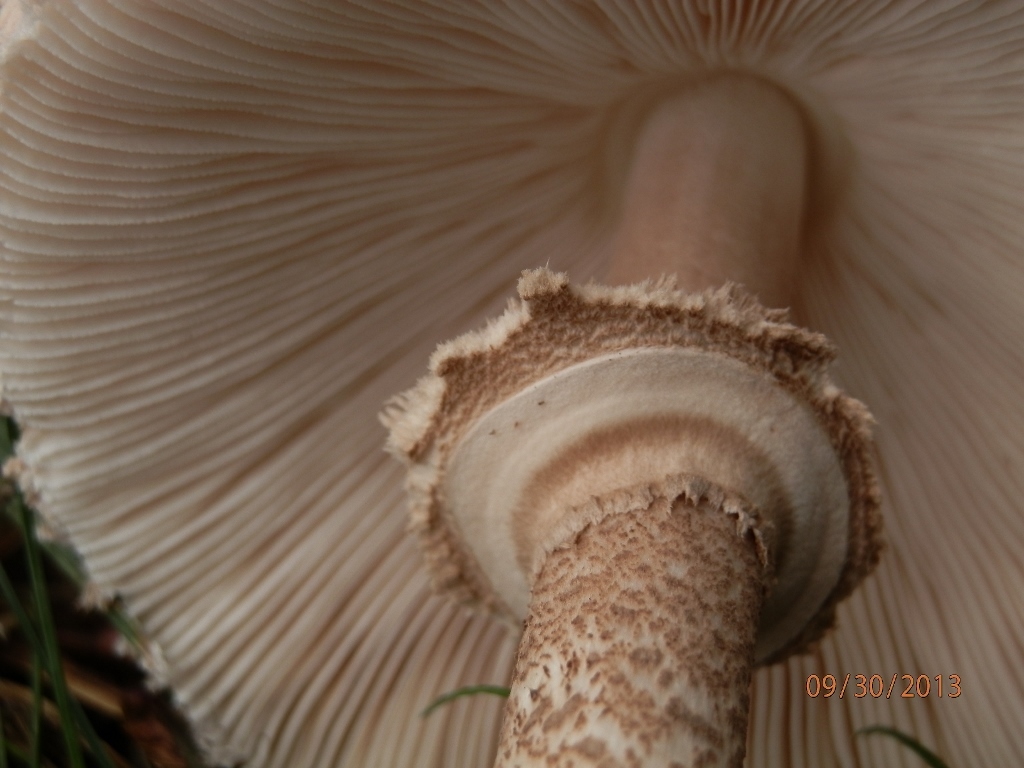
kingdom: Fungi
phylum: Basidiomycota
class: Agaricomycetes
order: Agaricales
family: Agaricaceae
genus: Macrolepiota
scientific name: Macrolepiota procera
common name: Parasol
